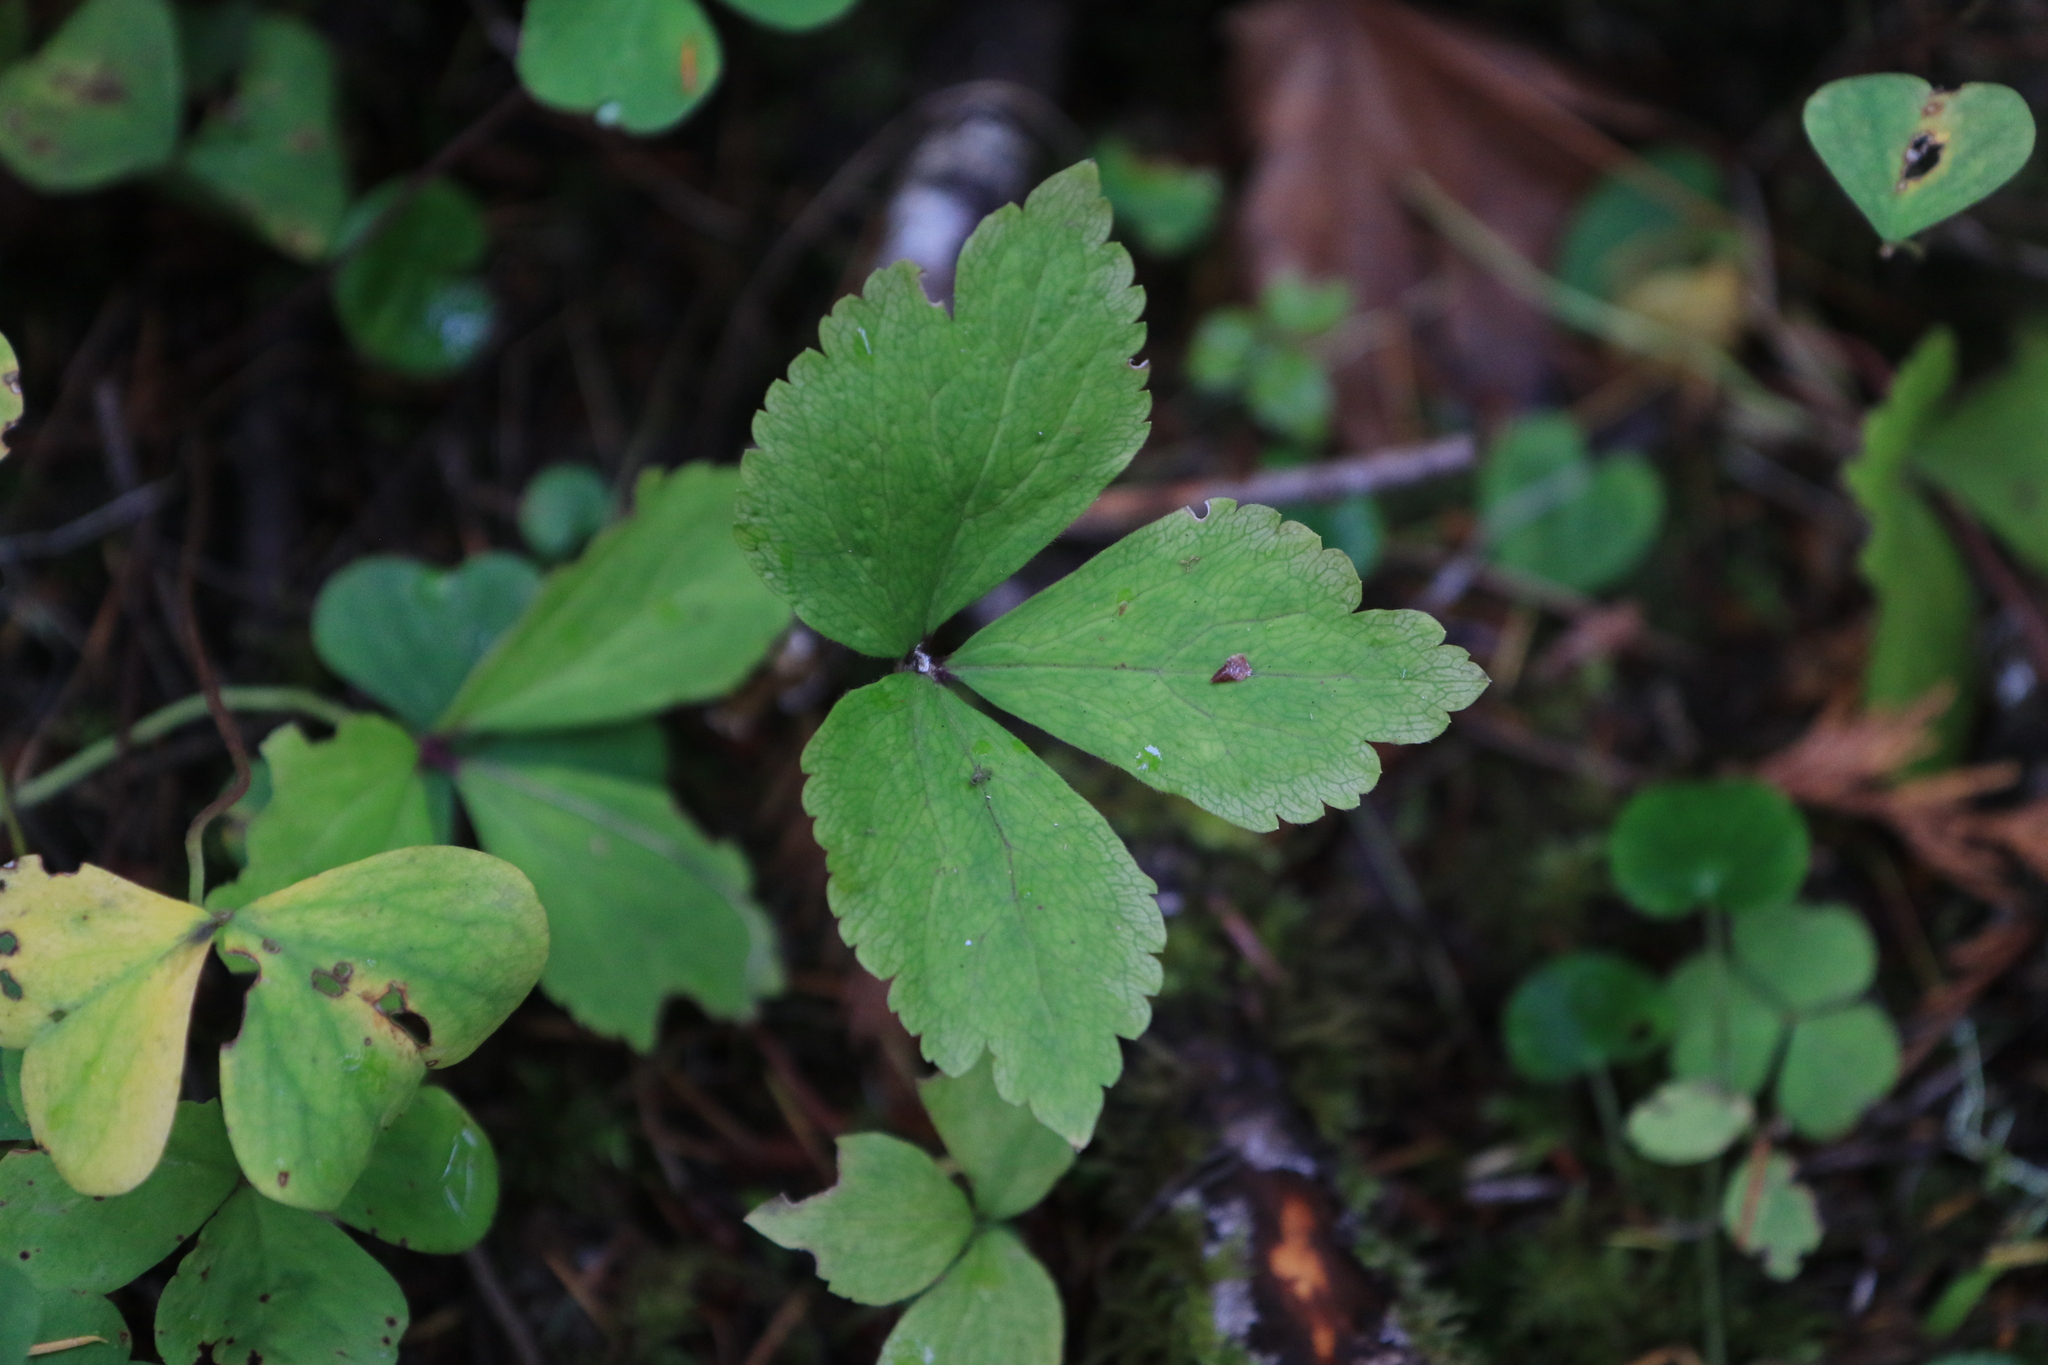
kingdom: Plantae
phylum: Tracheophyta
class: Magnoliopsida
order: Ranunculales
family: Ranunculaceae
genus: Anemonastrum
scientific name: Anemonastrum deltoideum
